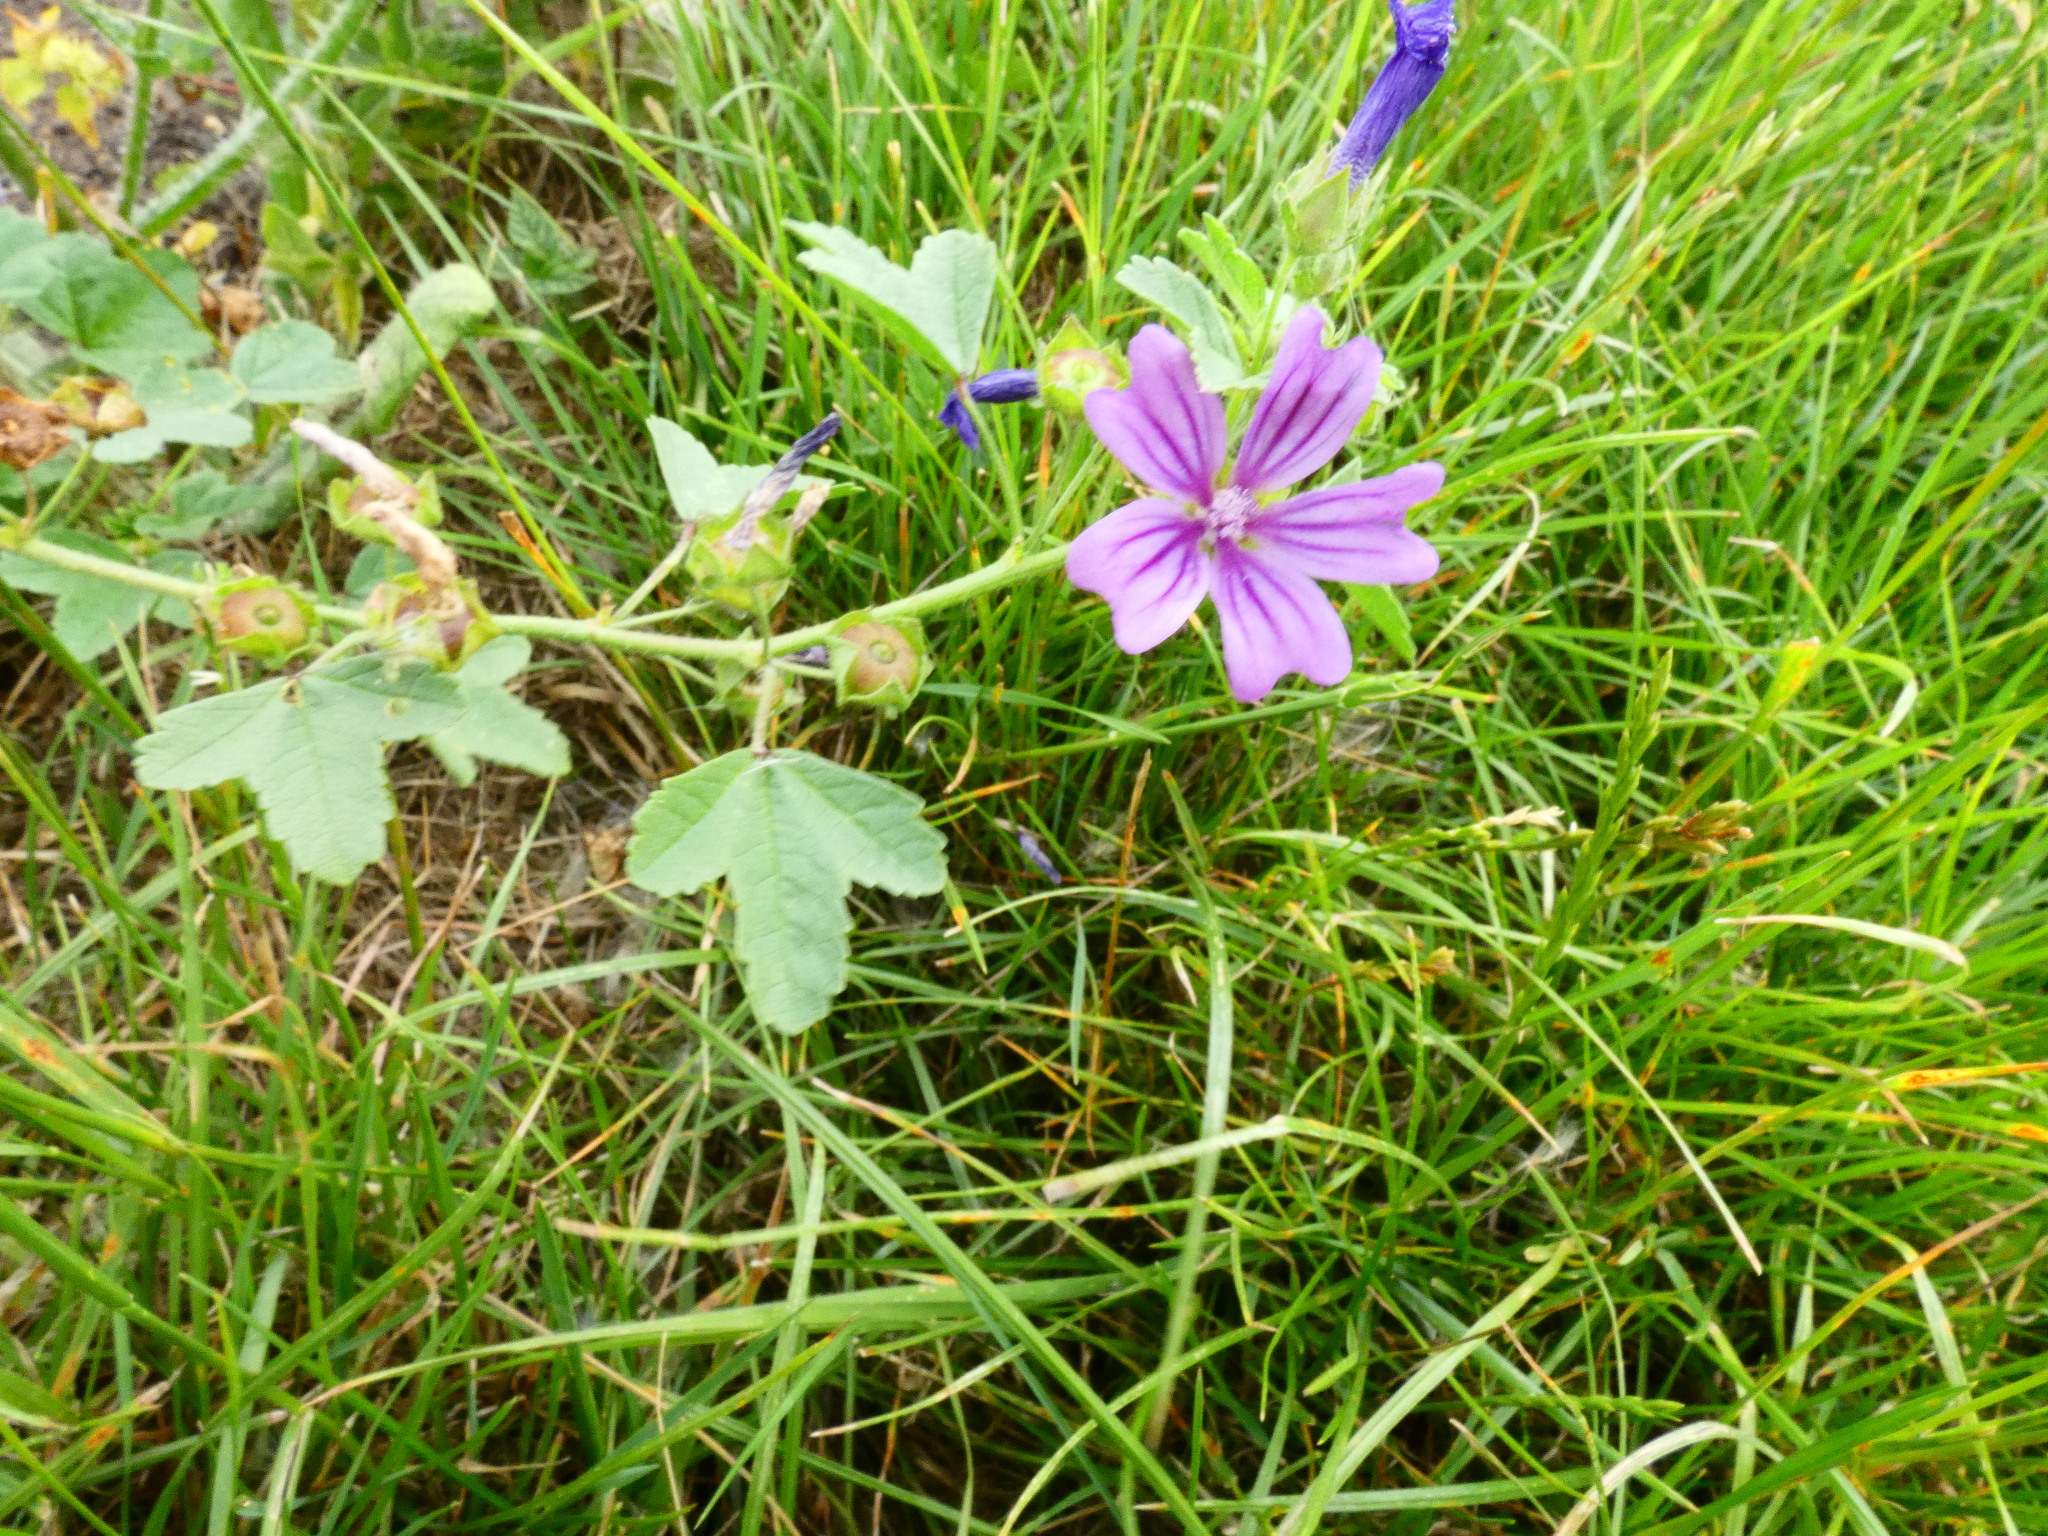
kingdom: Plantae
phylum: Tracheophyta
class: Magnoliopsida
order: Malvales
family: Malvaceae
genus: Malva
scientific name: Malva sylvestris
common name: Common mallow
